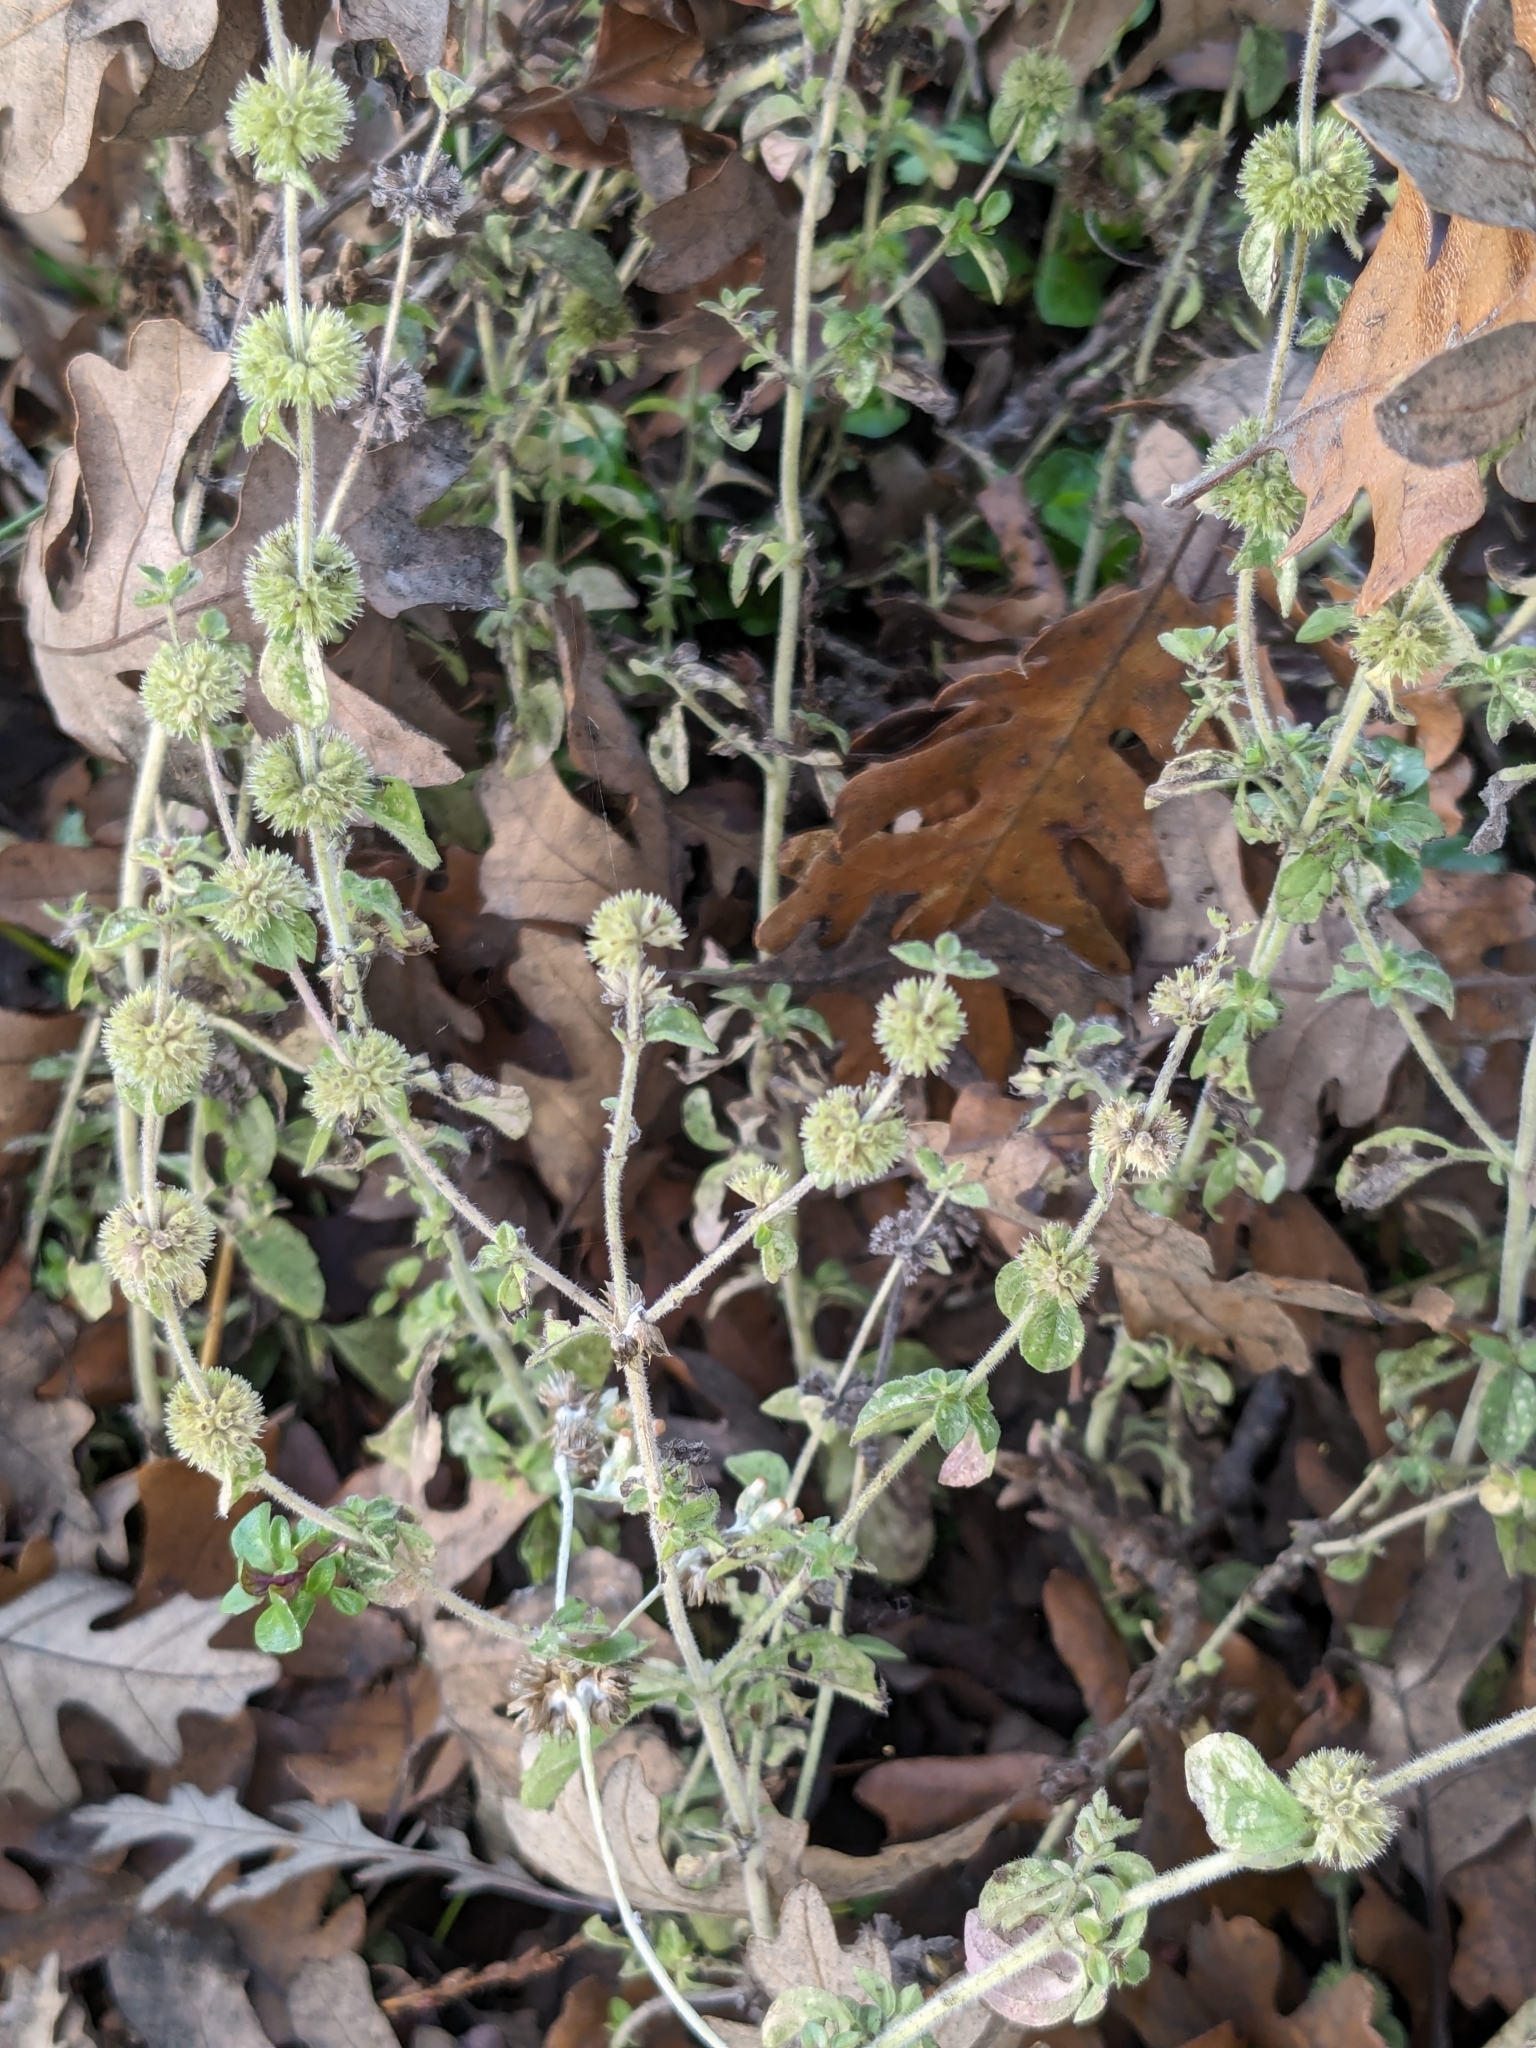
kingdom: Plantae
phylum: Tracheophyta
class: Magnoliopsida
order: Lamiales
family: Lamiaceae
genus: Mentha
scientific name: Mentha pulegium
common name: Pennyroyal
